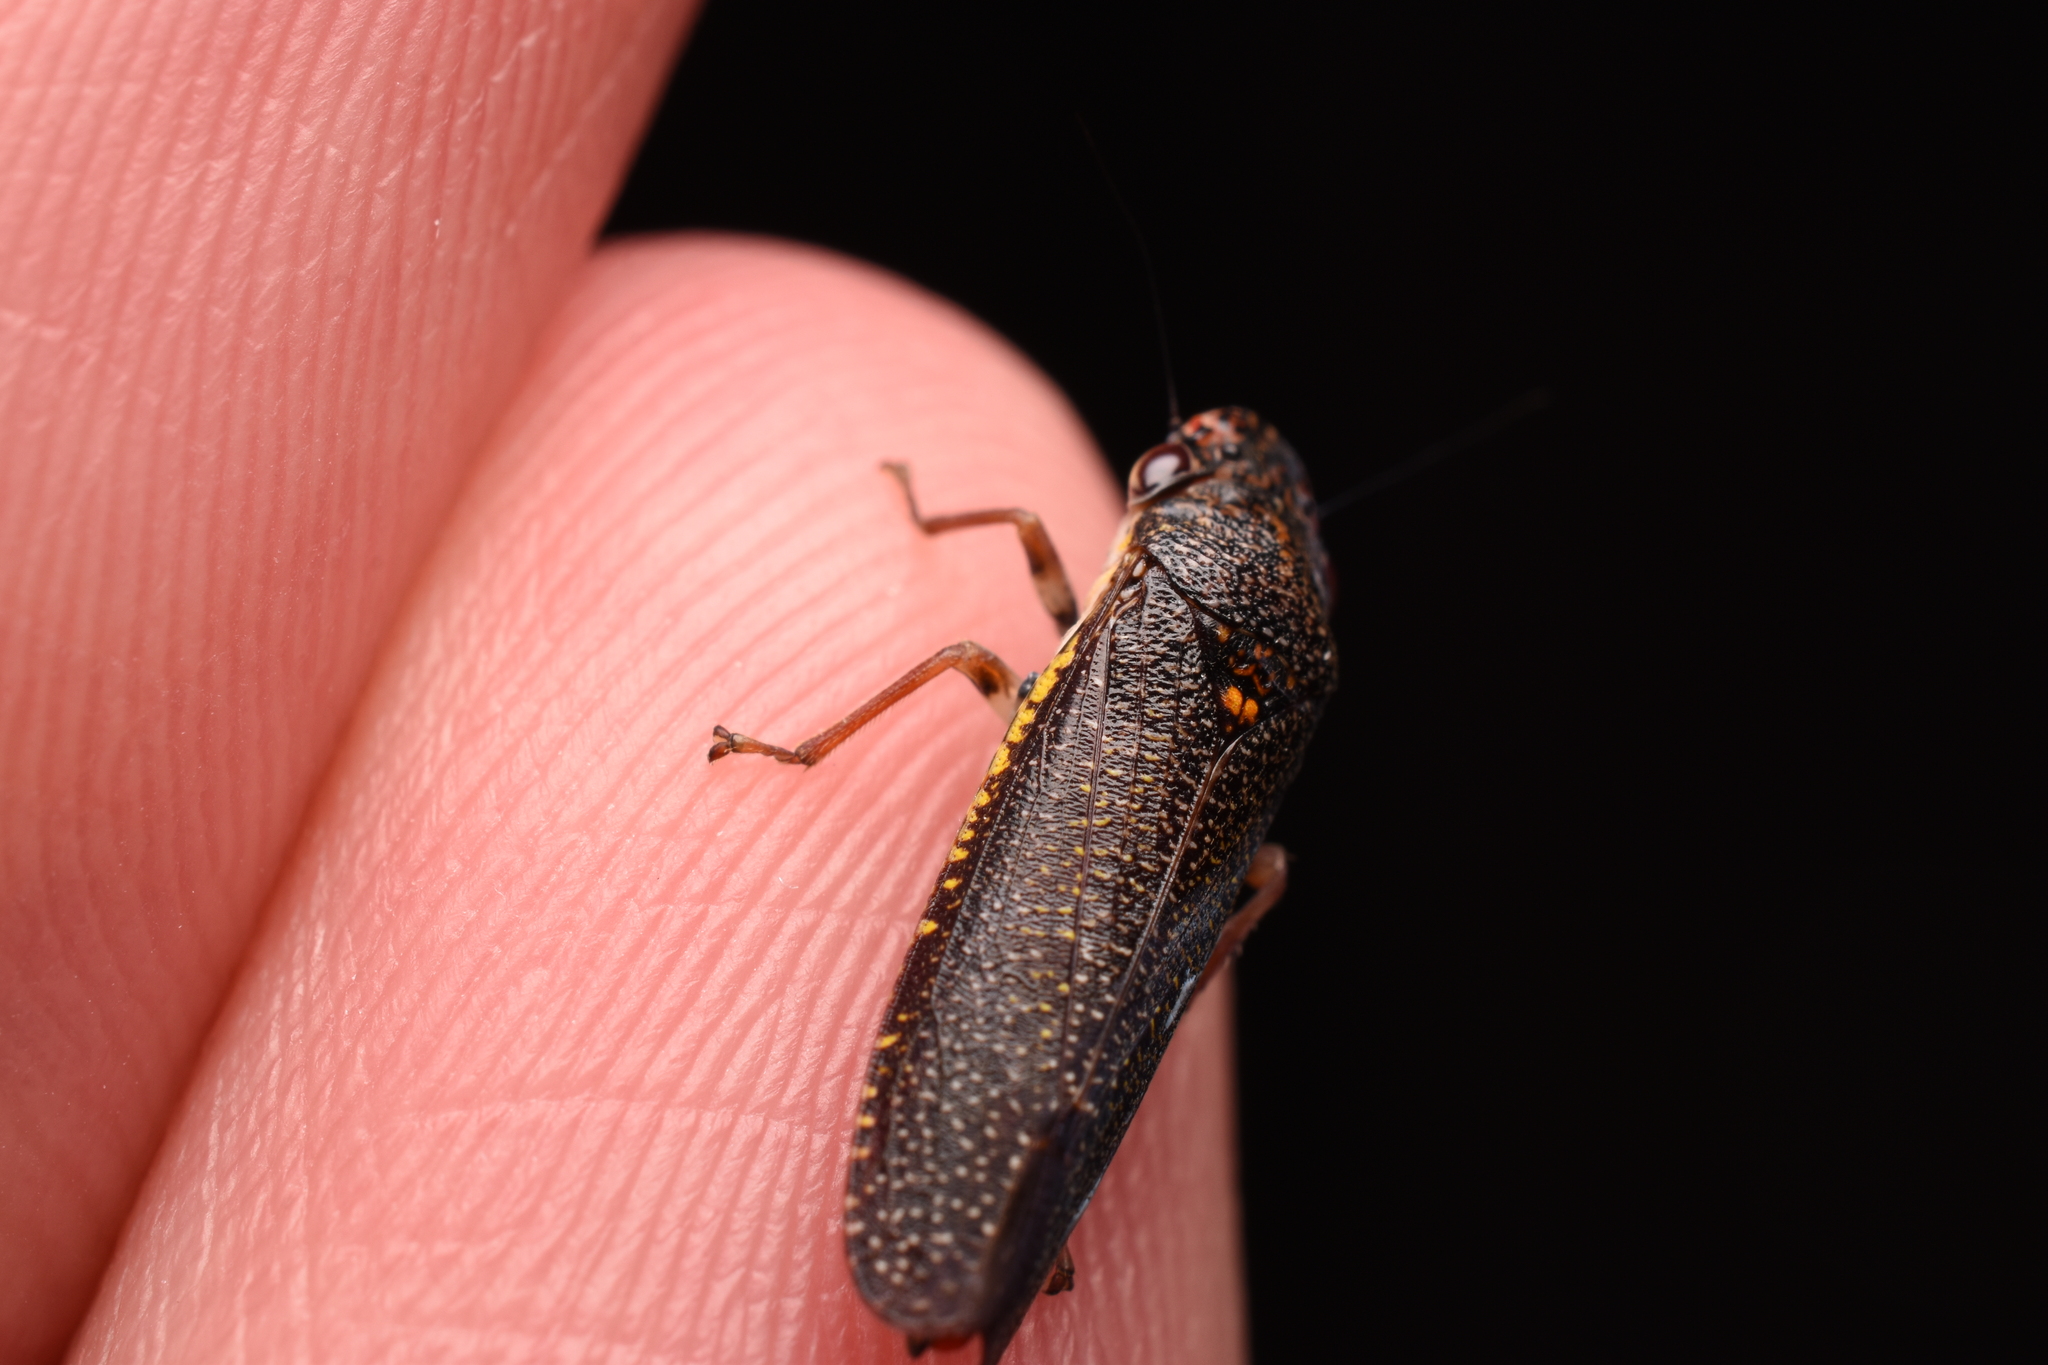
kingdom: Animalia
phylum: Arthropoda
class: Insecta
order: Hemiptera
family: Cicadellidae
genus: Paraulacizes
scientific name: Paraulacizes irrorata
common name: Speckled sharpshooter
